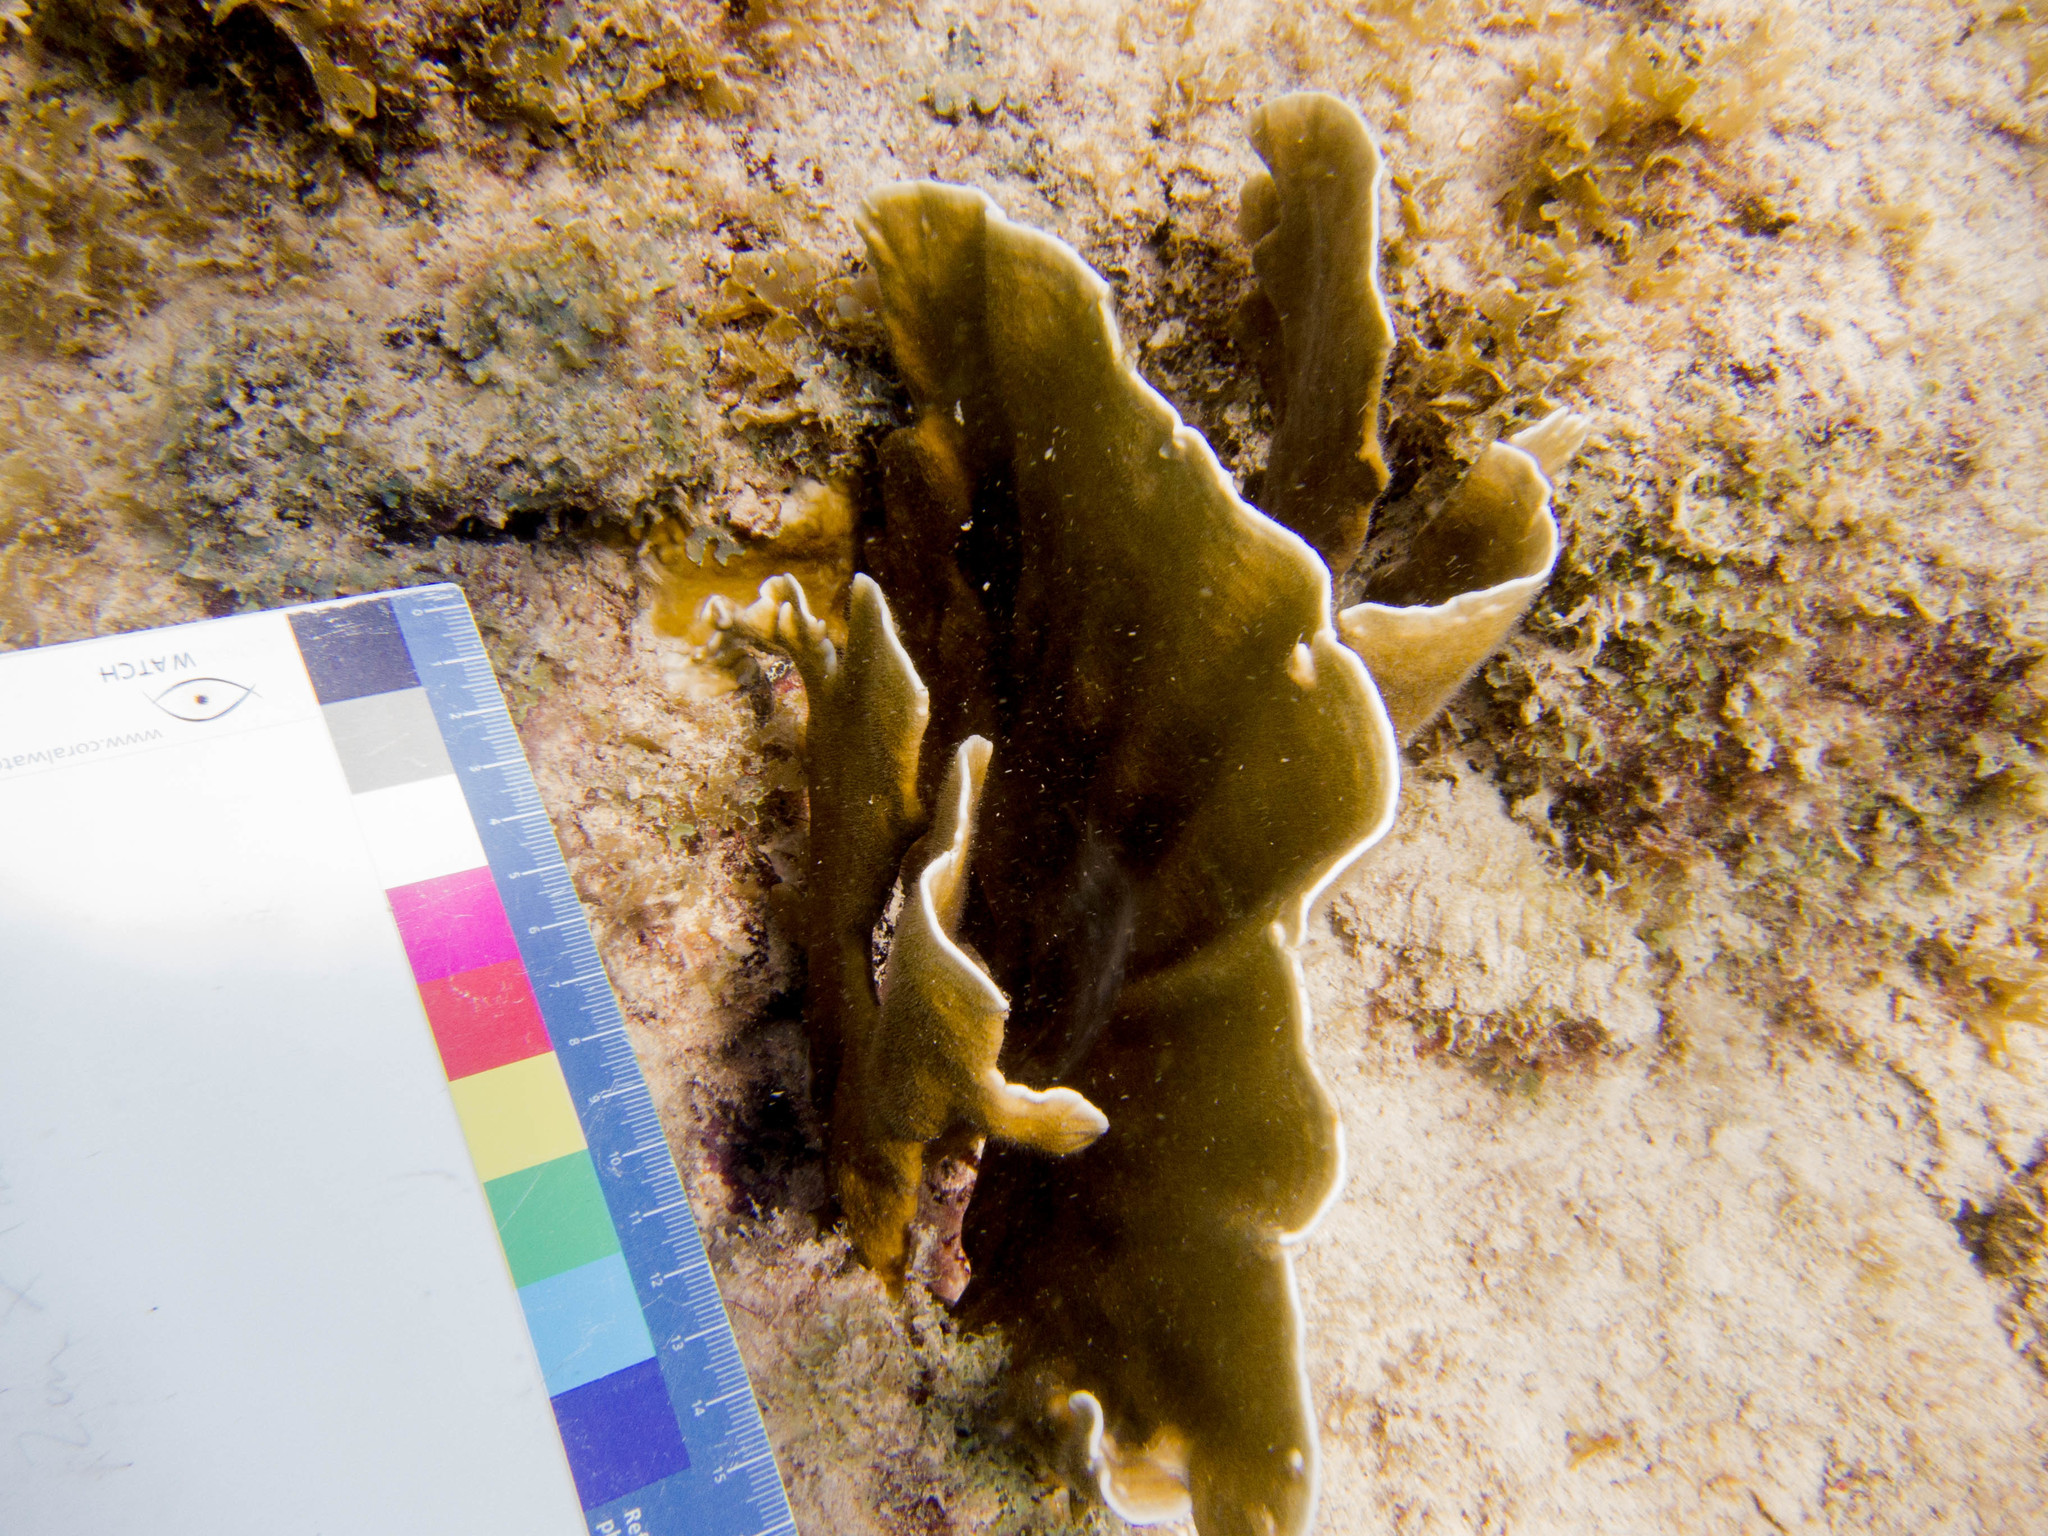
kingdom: Animalia
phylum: Cnidaria
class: Hydrozoa
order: Anthoathecata
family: Milleporidae
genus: Millepora
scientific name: Millepora complanata
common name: Bladed fire coral
